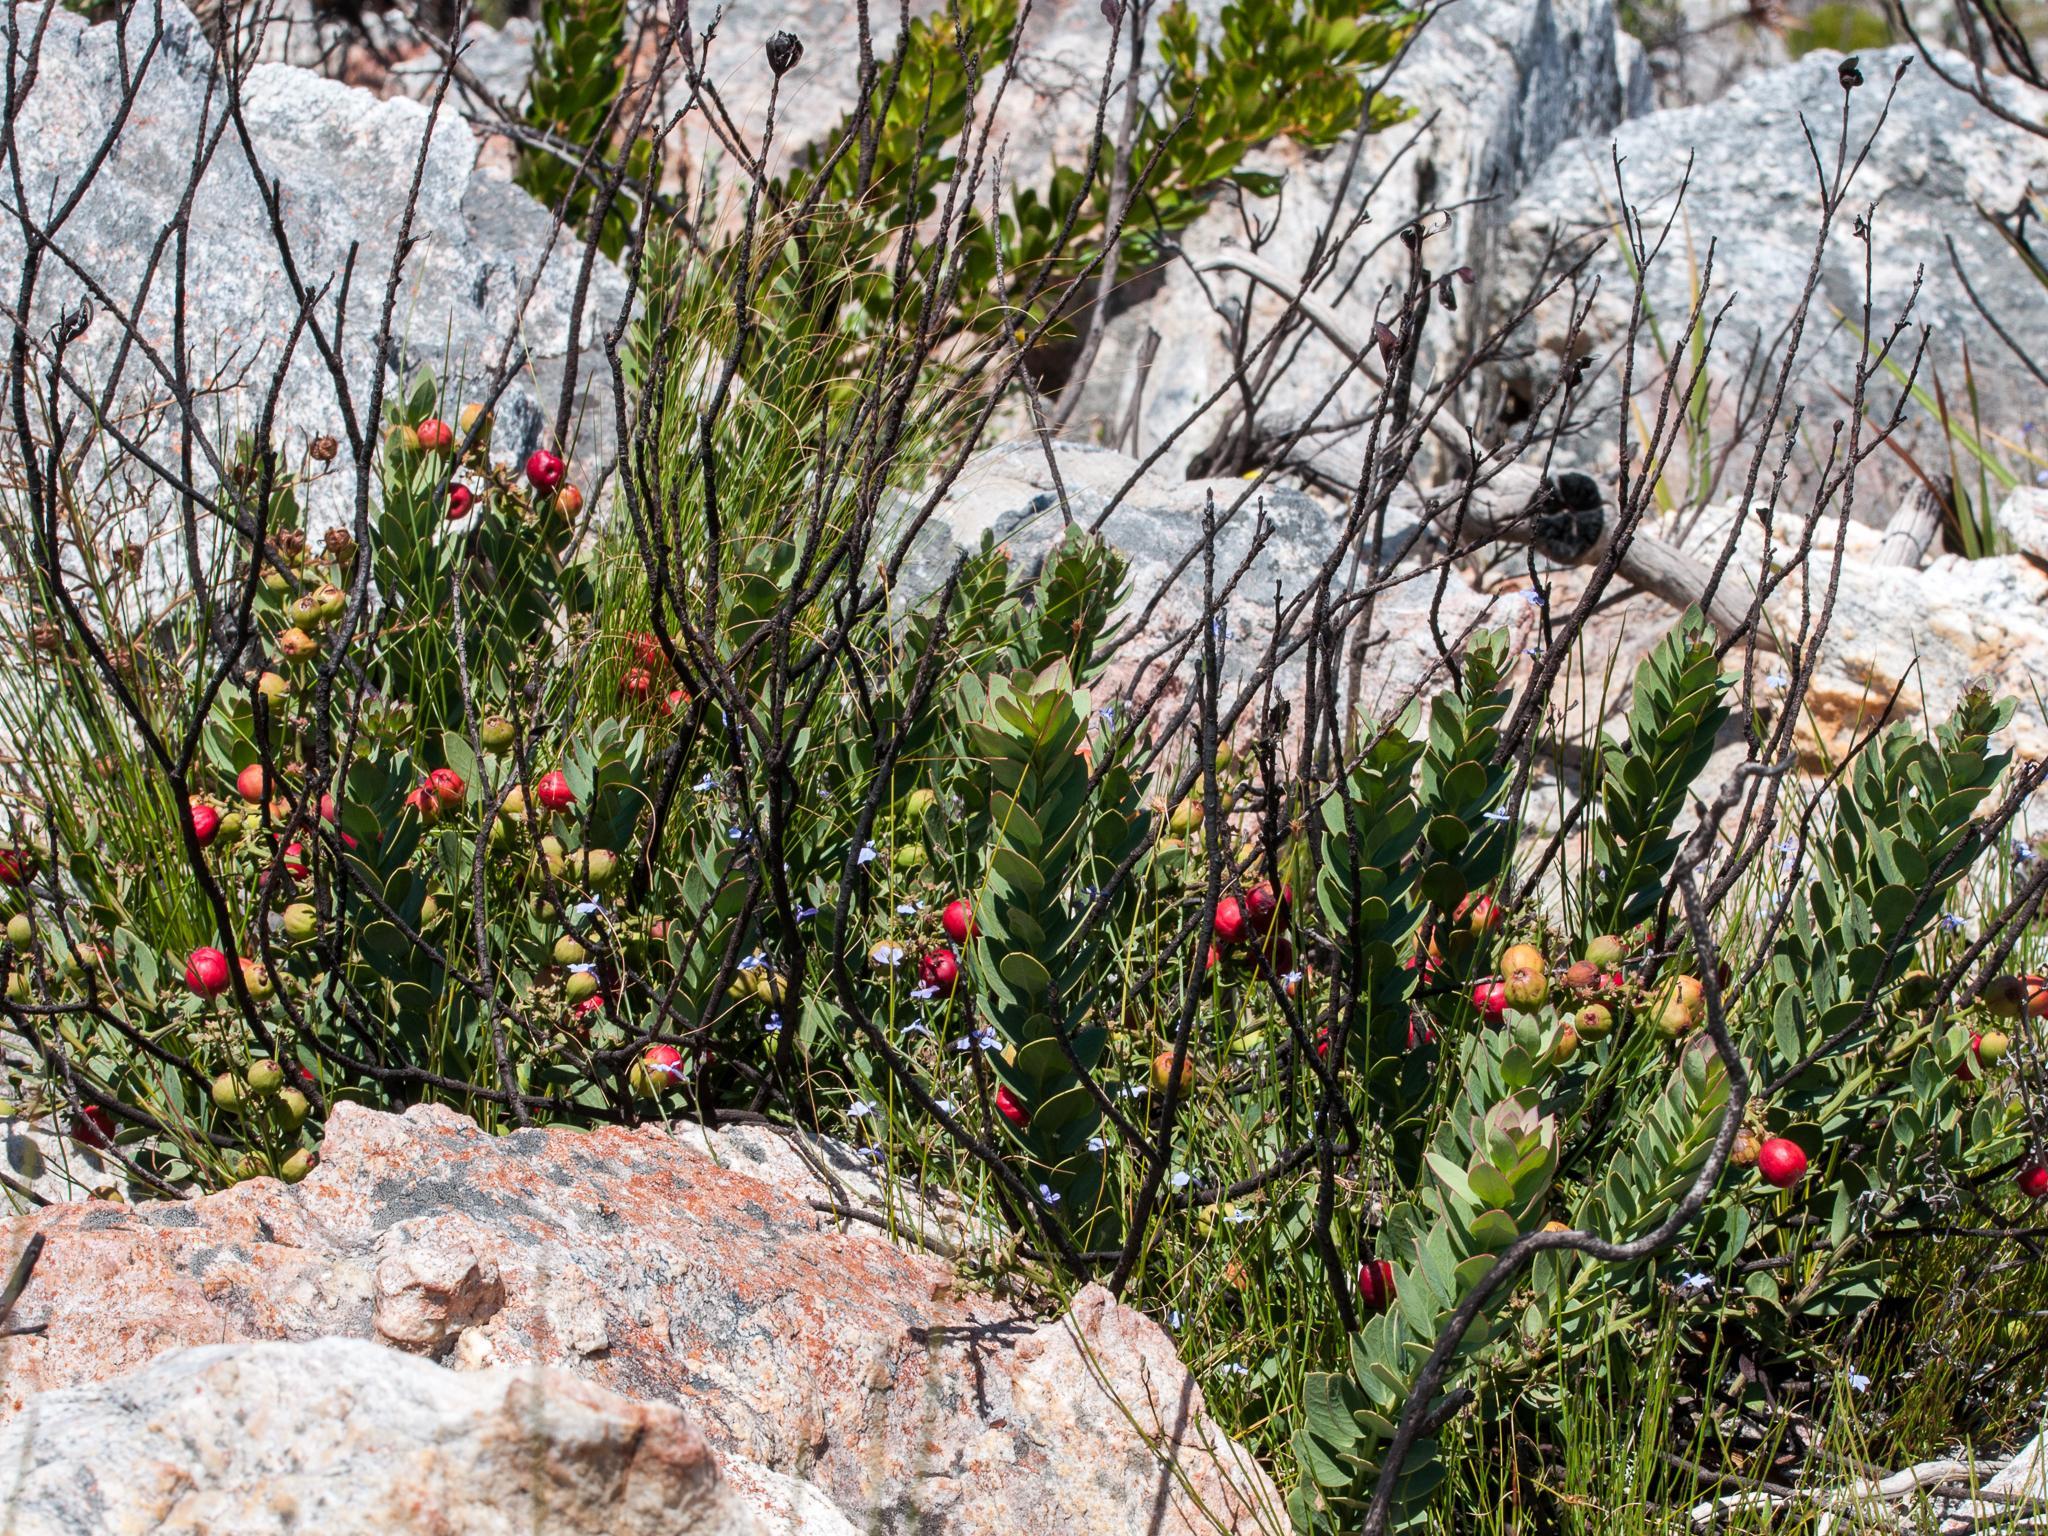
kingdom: Plantae
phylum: Tracheophyta
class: Magnoliopsida
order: Santalales
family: Santalaceae
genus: Osyris
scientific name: Osyris speciosa
